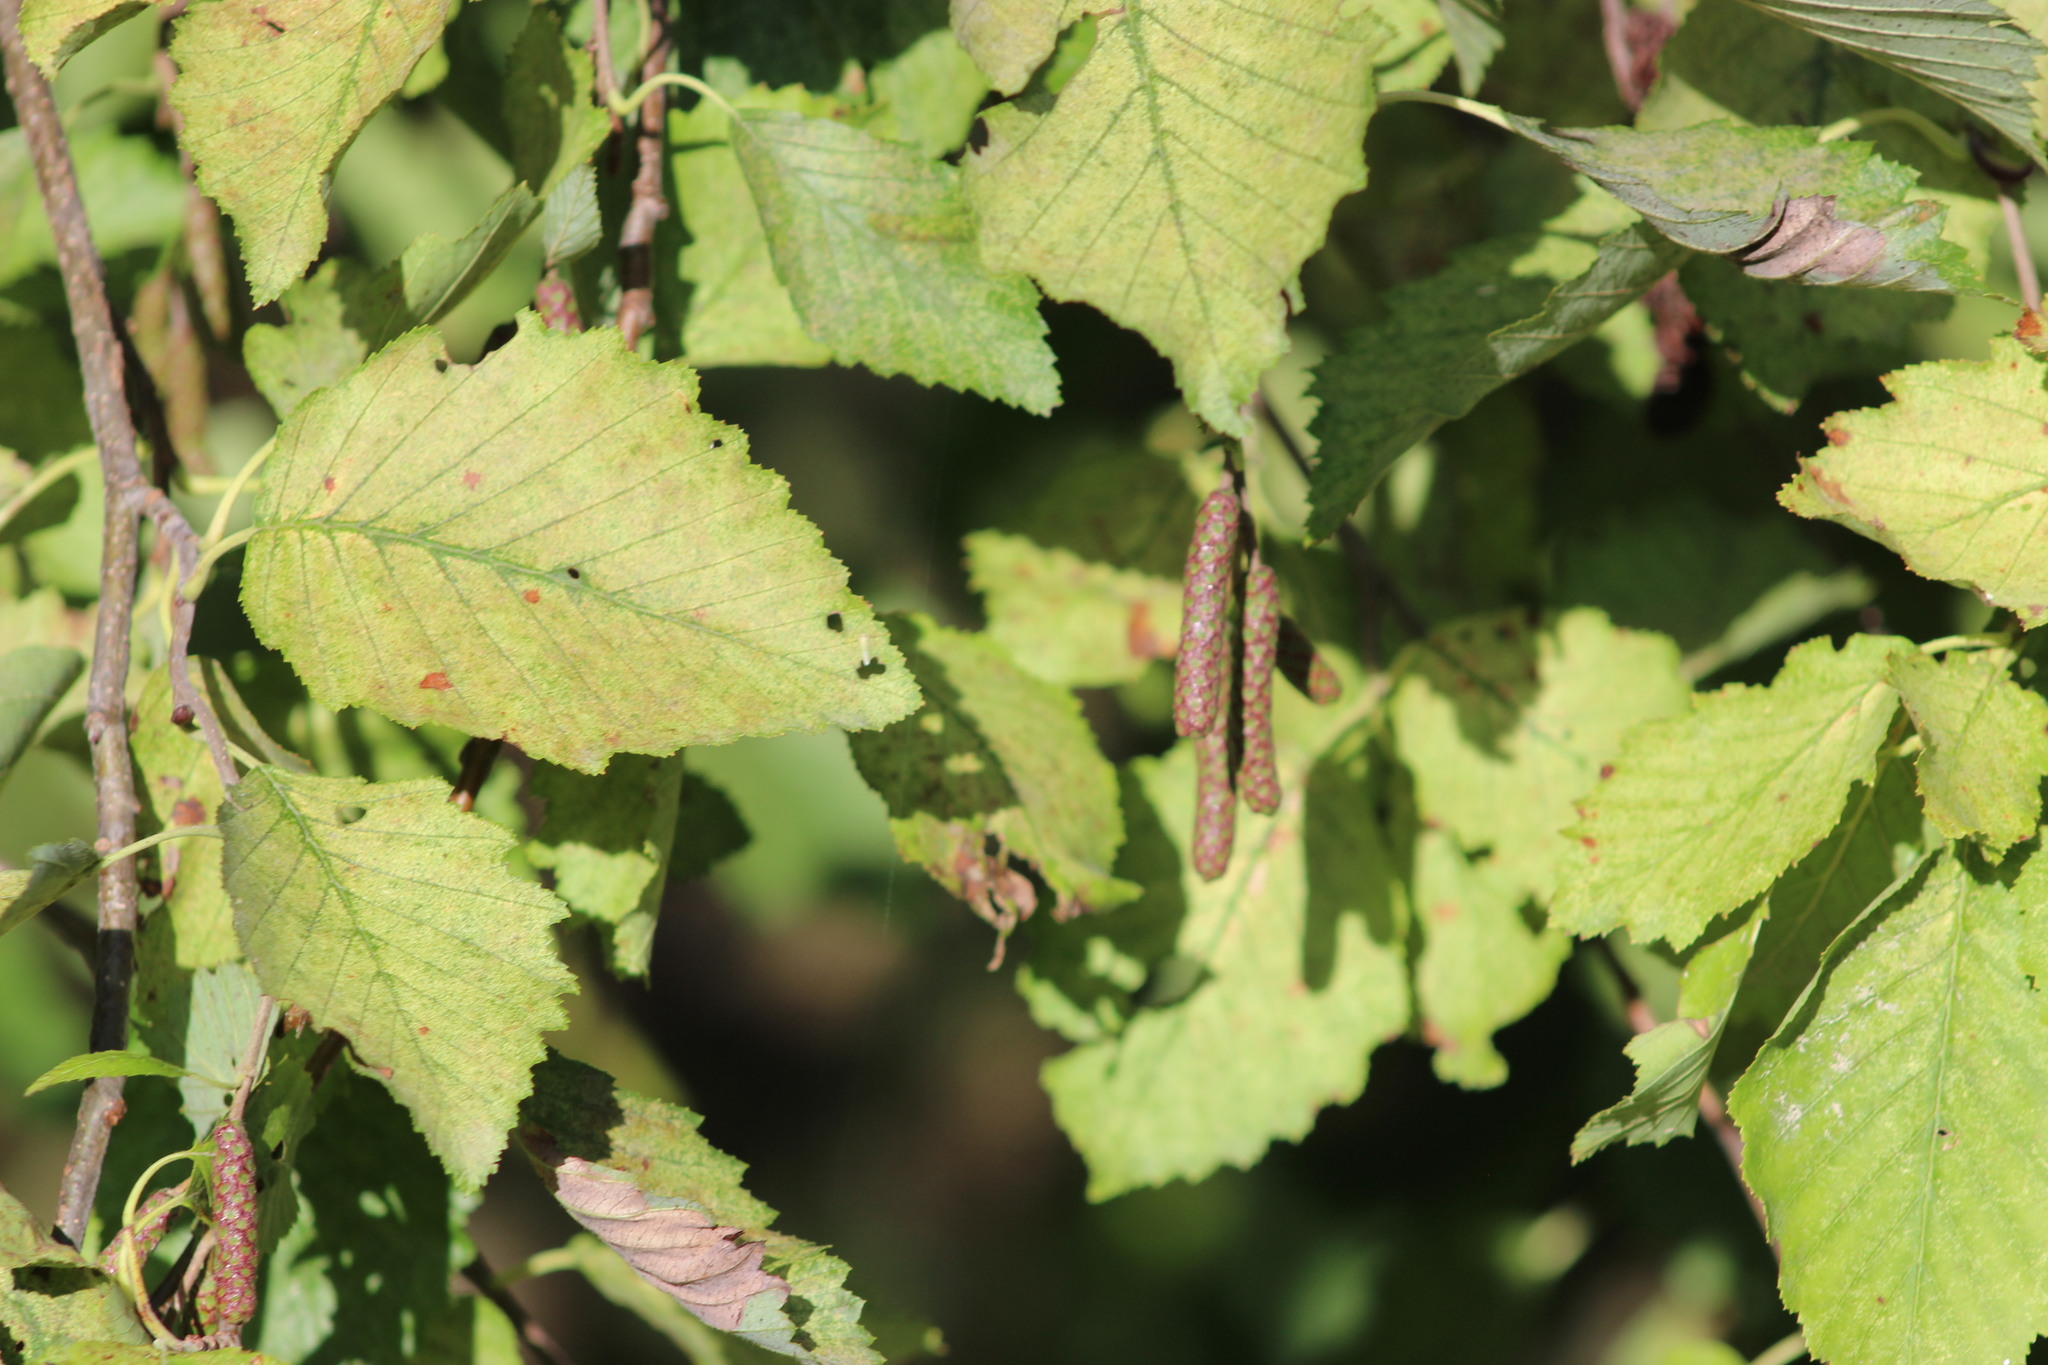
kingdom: Plantae
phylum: Tracheophyta
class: Magnoliopsida
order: Fagales
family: Betulaceae
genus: Alnus
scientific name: Alnus incana
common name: Grey alder
